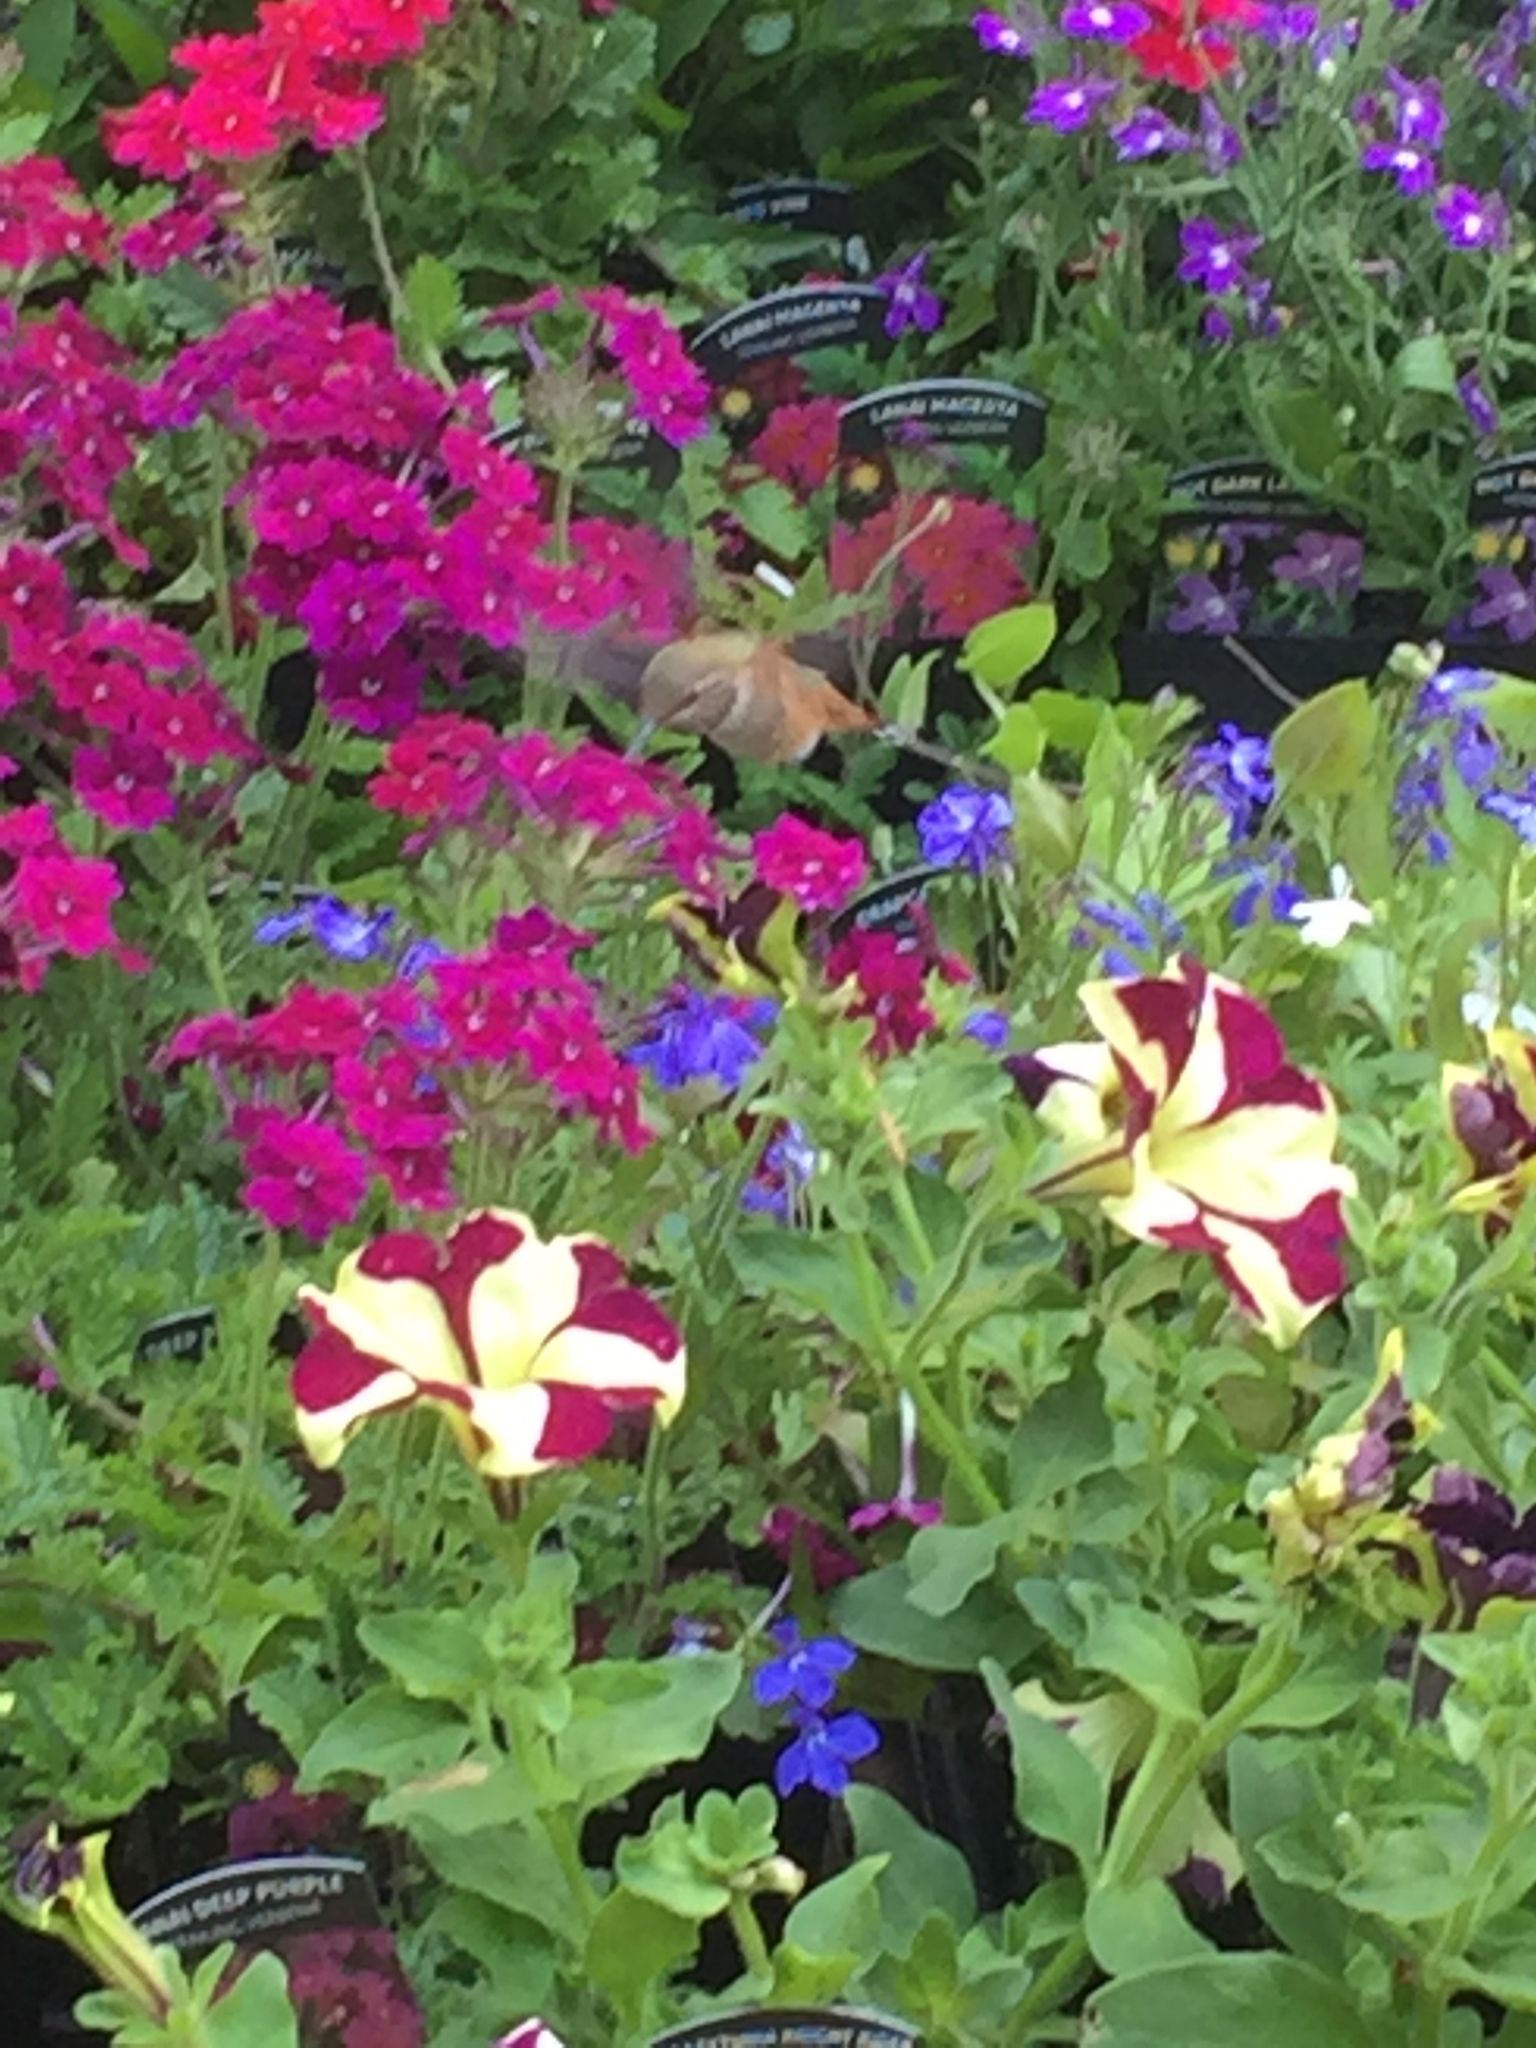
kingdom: Animalia
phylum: Chordata
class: Aves
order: Apodiformes
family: Trochilidae
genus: Selasphorus
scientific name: Selasphorus rufus
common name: Rufous hummingbird
